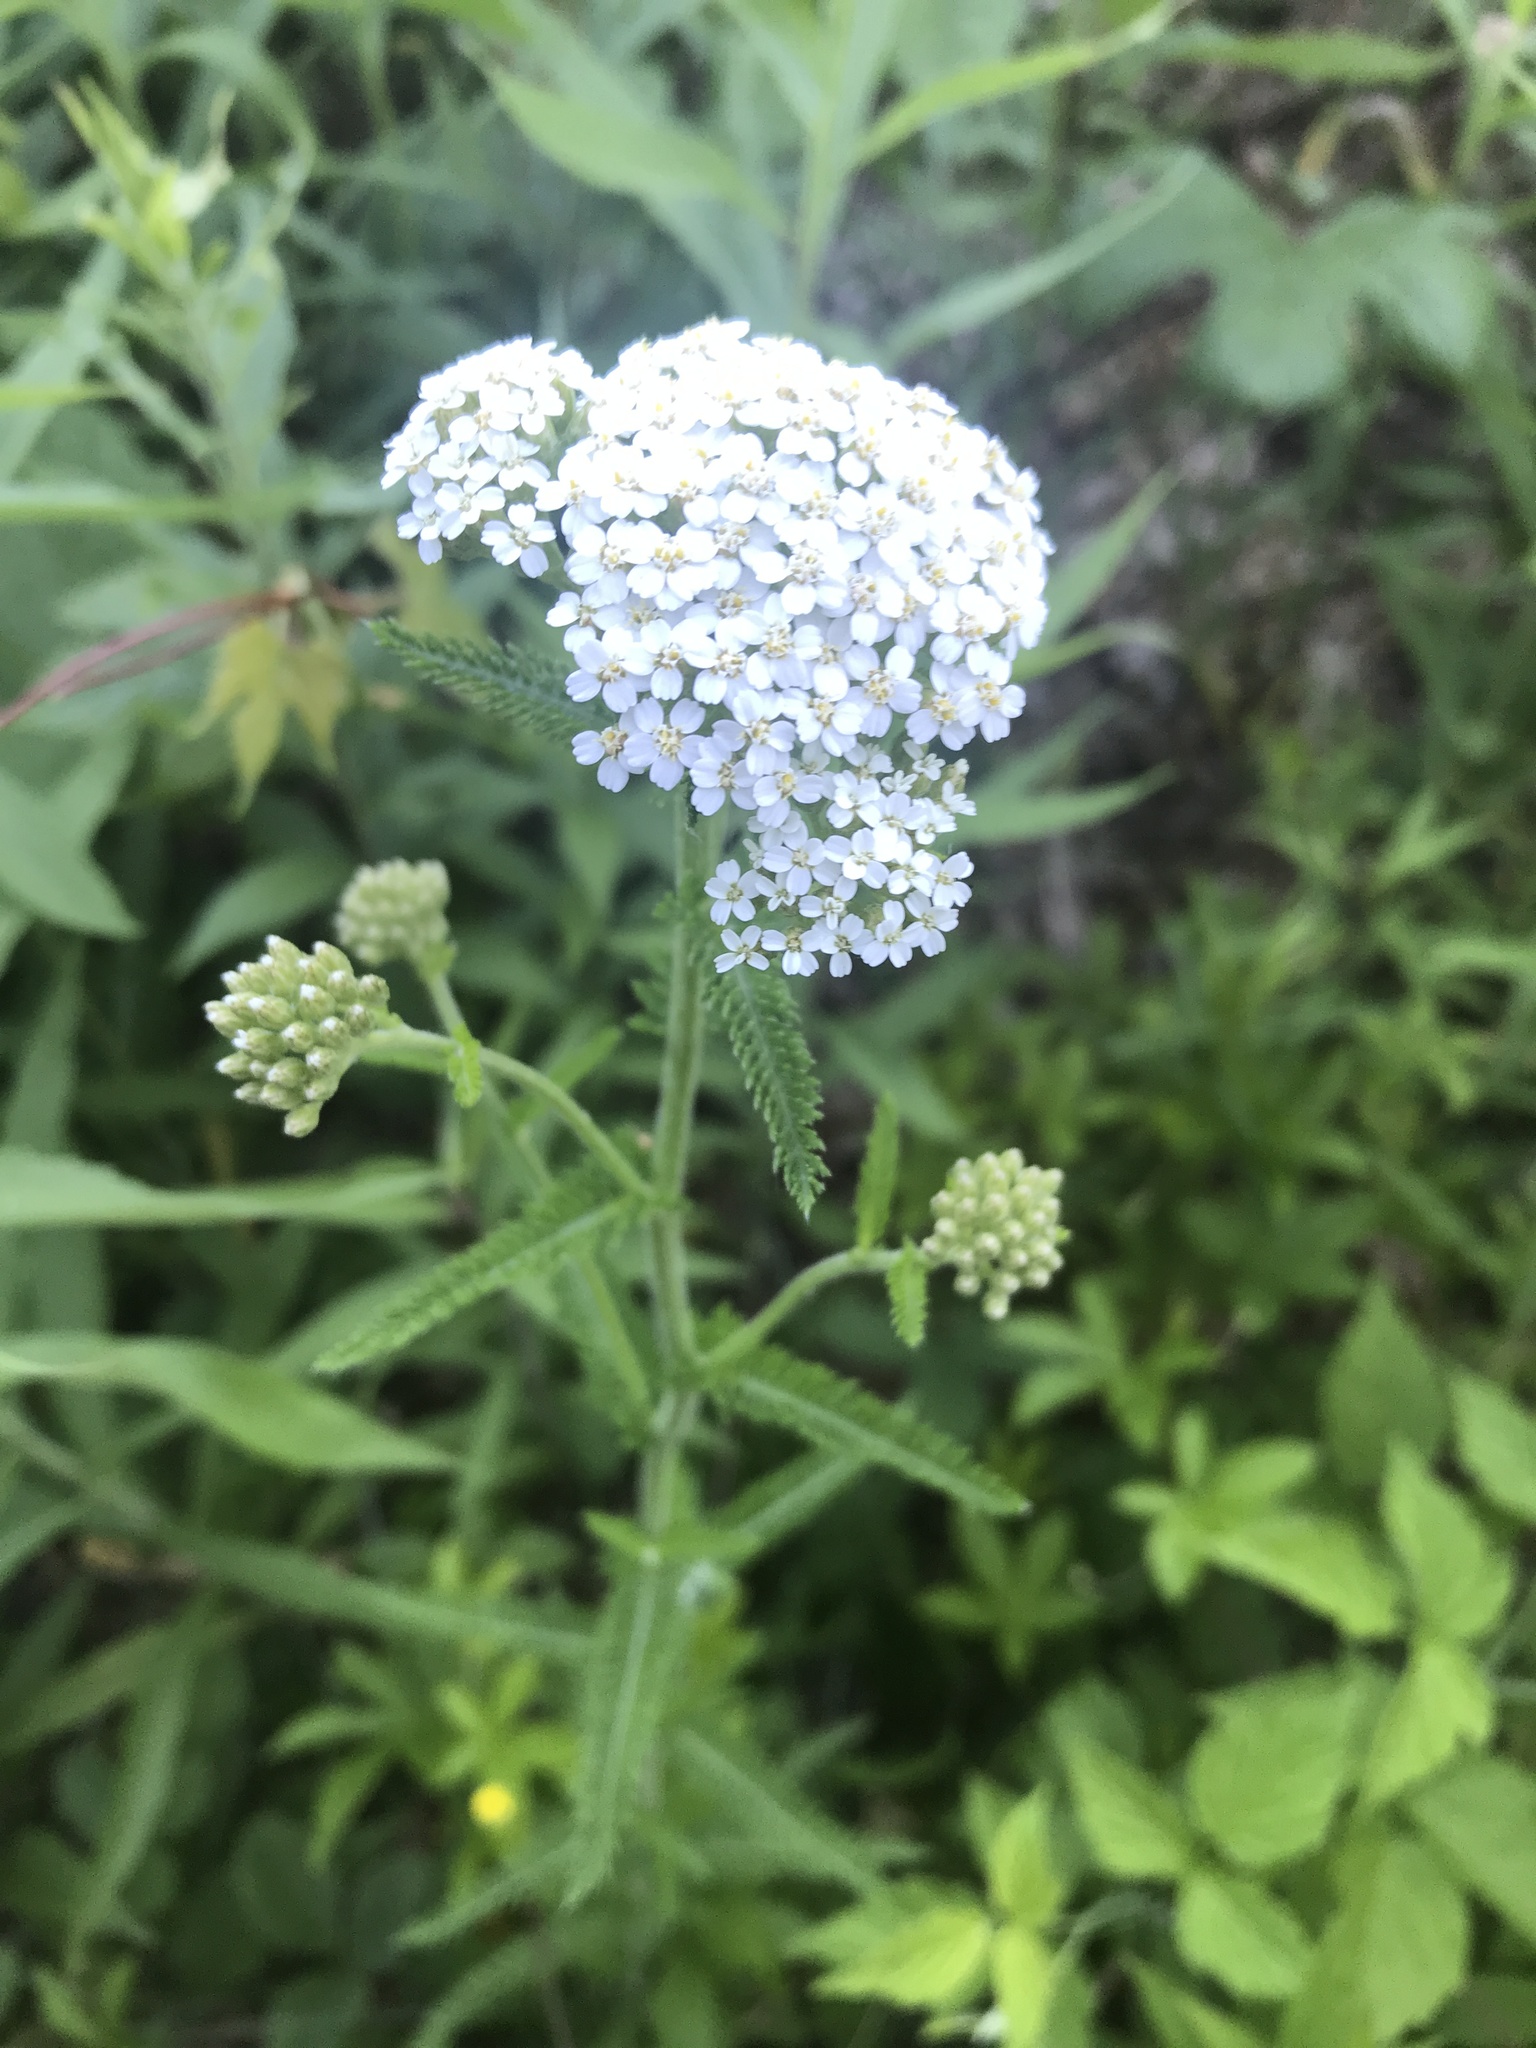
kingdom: Plantae
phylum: Tracheophyta
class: Magnoliopsida
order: Asterales
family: Asteraceae
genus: Achillea
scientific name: Achillea millefolium
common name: Yarrow
